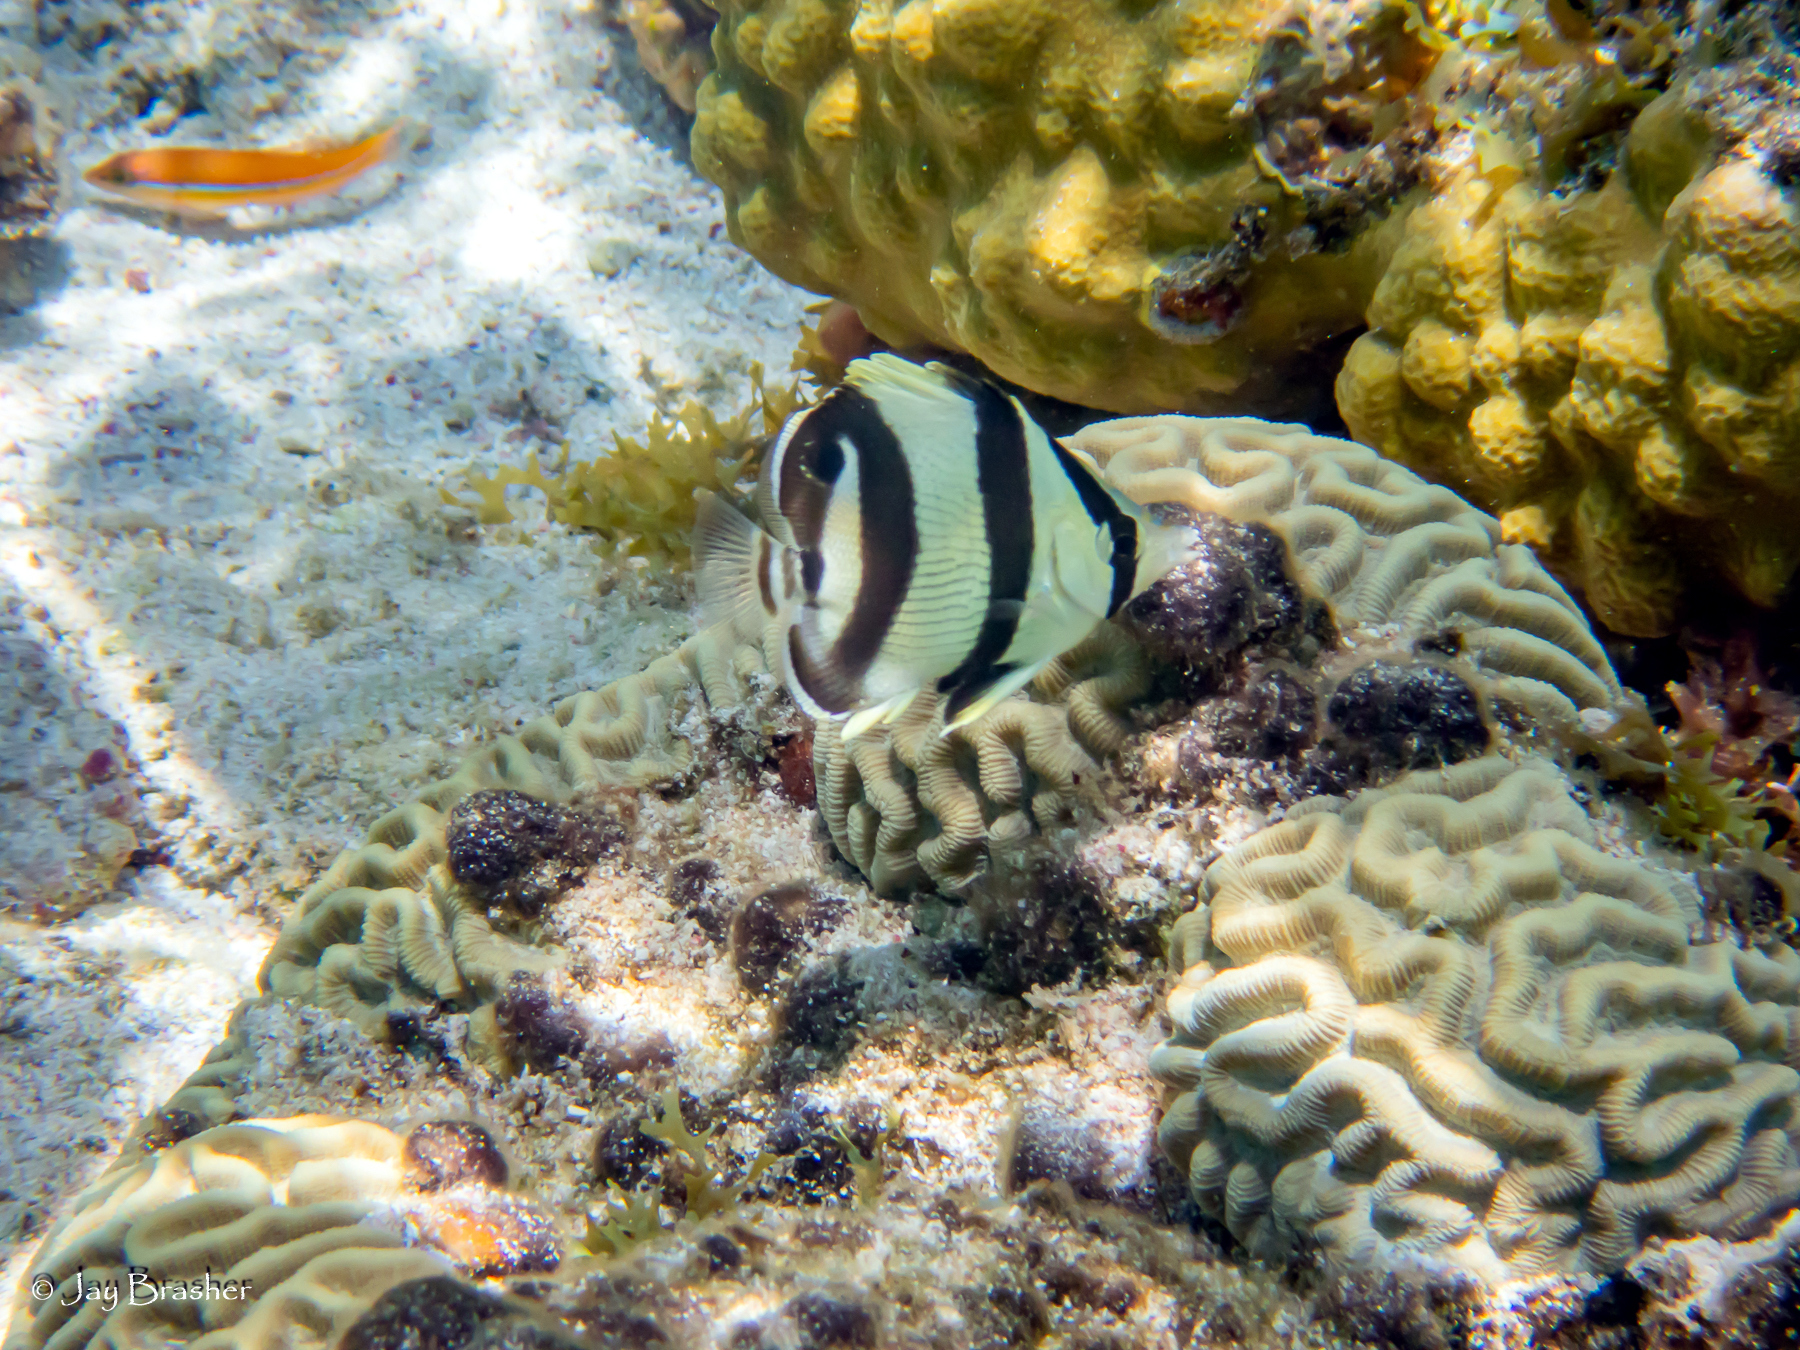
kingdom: Animalia
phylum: Chordata
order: Perciformes
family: Labridae
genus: Halichoeres
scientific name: Halichoeres garnoti
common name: Yellowhead wrasse
